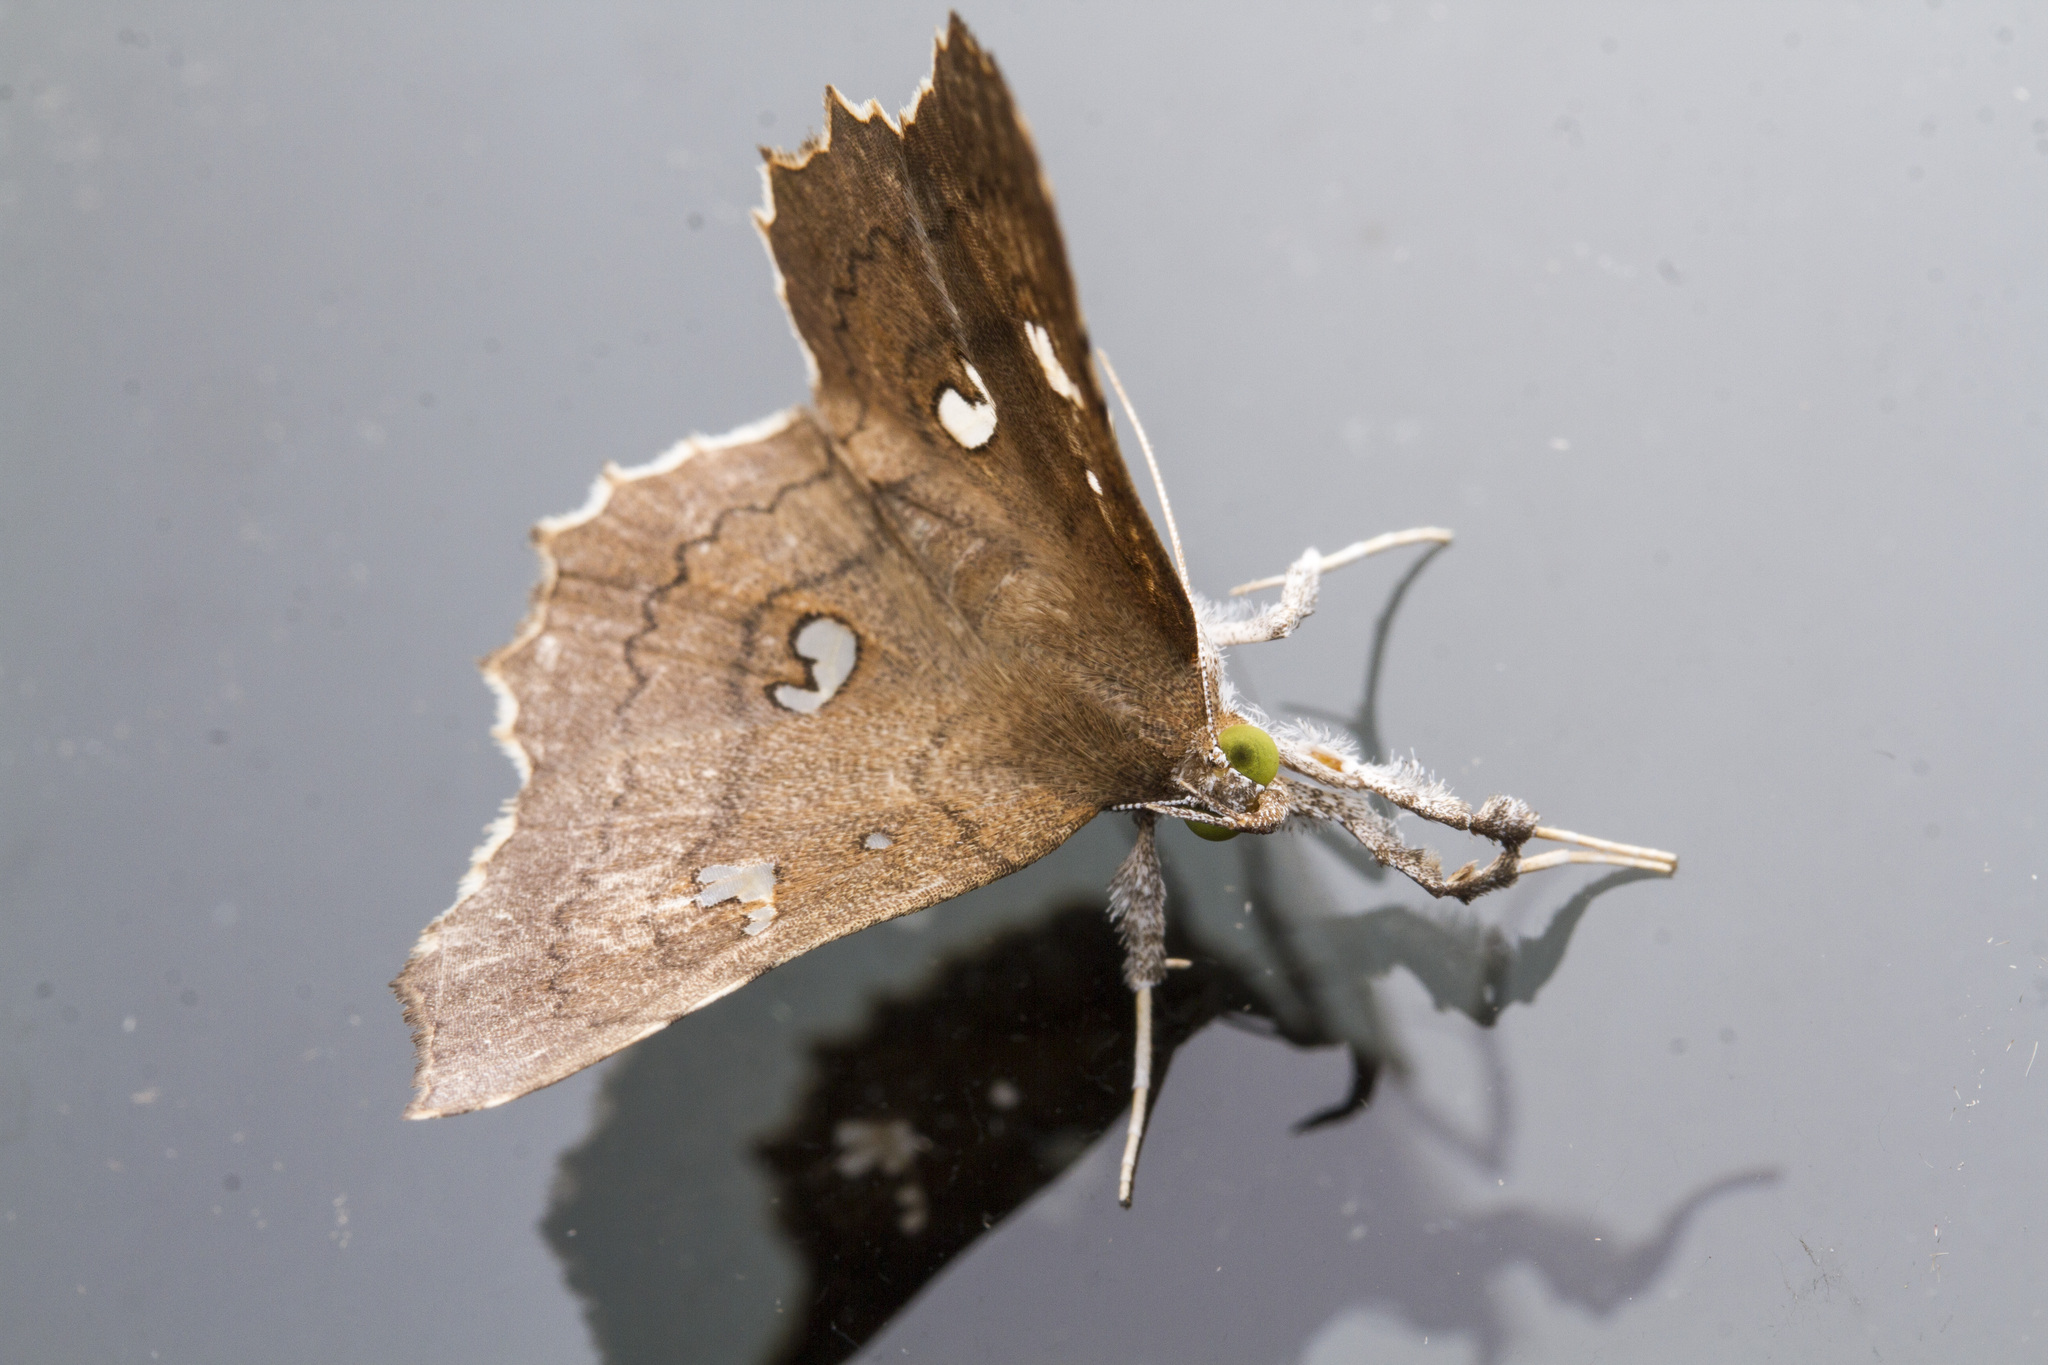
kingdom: Animalia
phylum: Arthropoda
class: Insecta
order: Lepidoptera
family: Erebidae
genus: Egnasia
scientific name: Egnasia ephyrodalis
